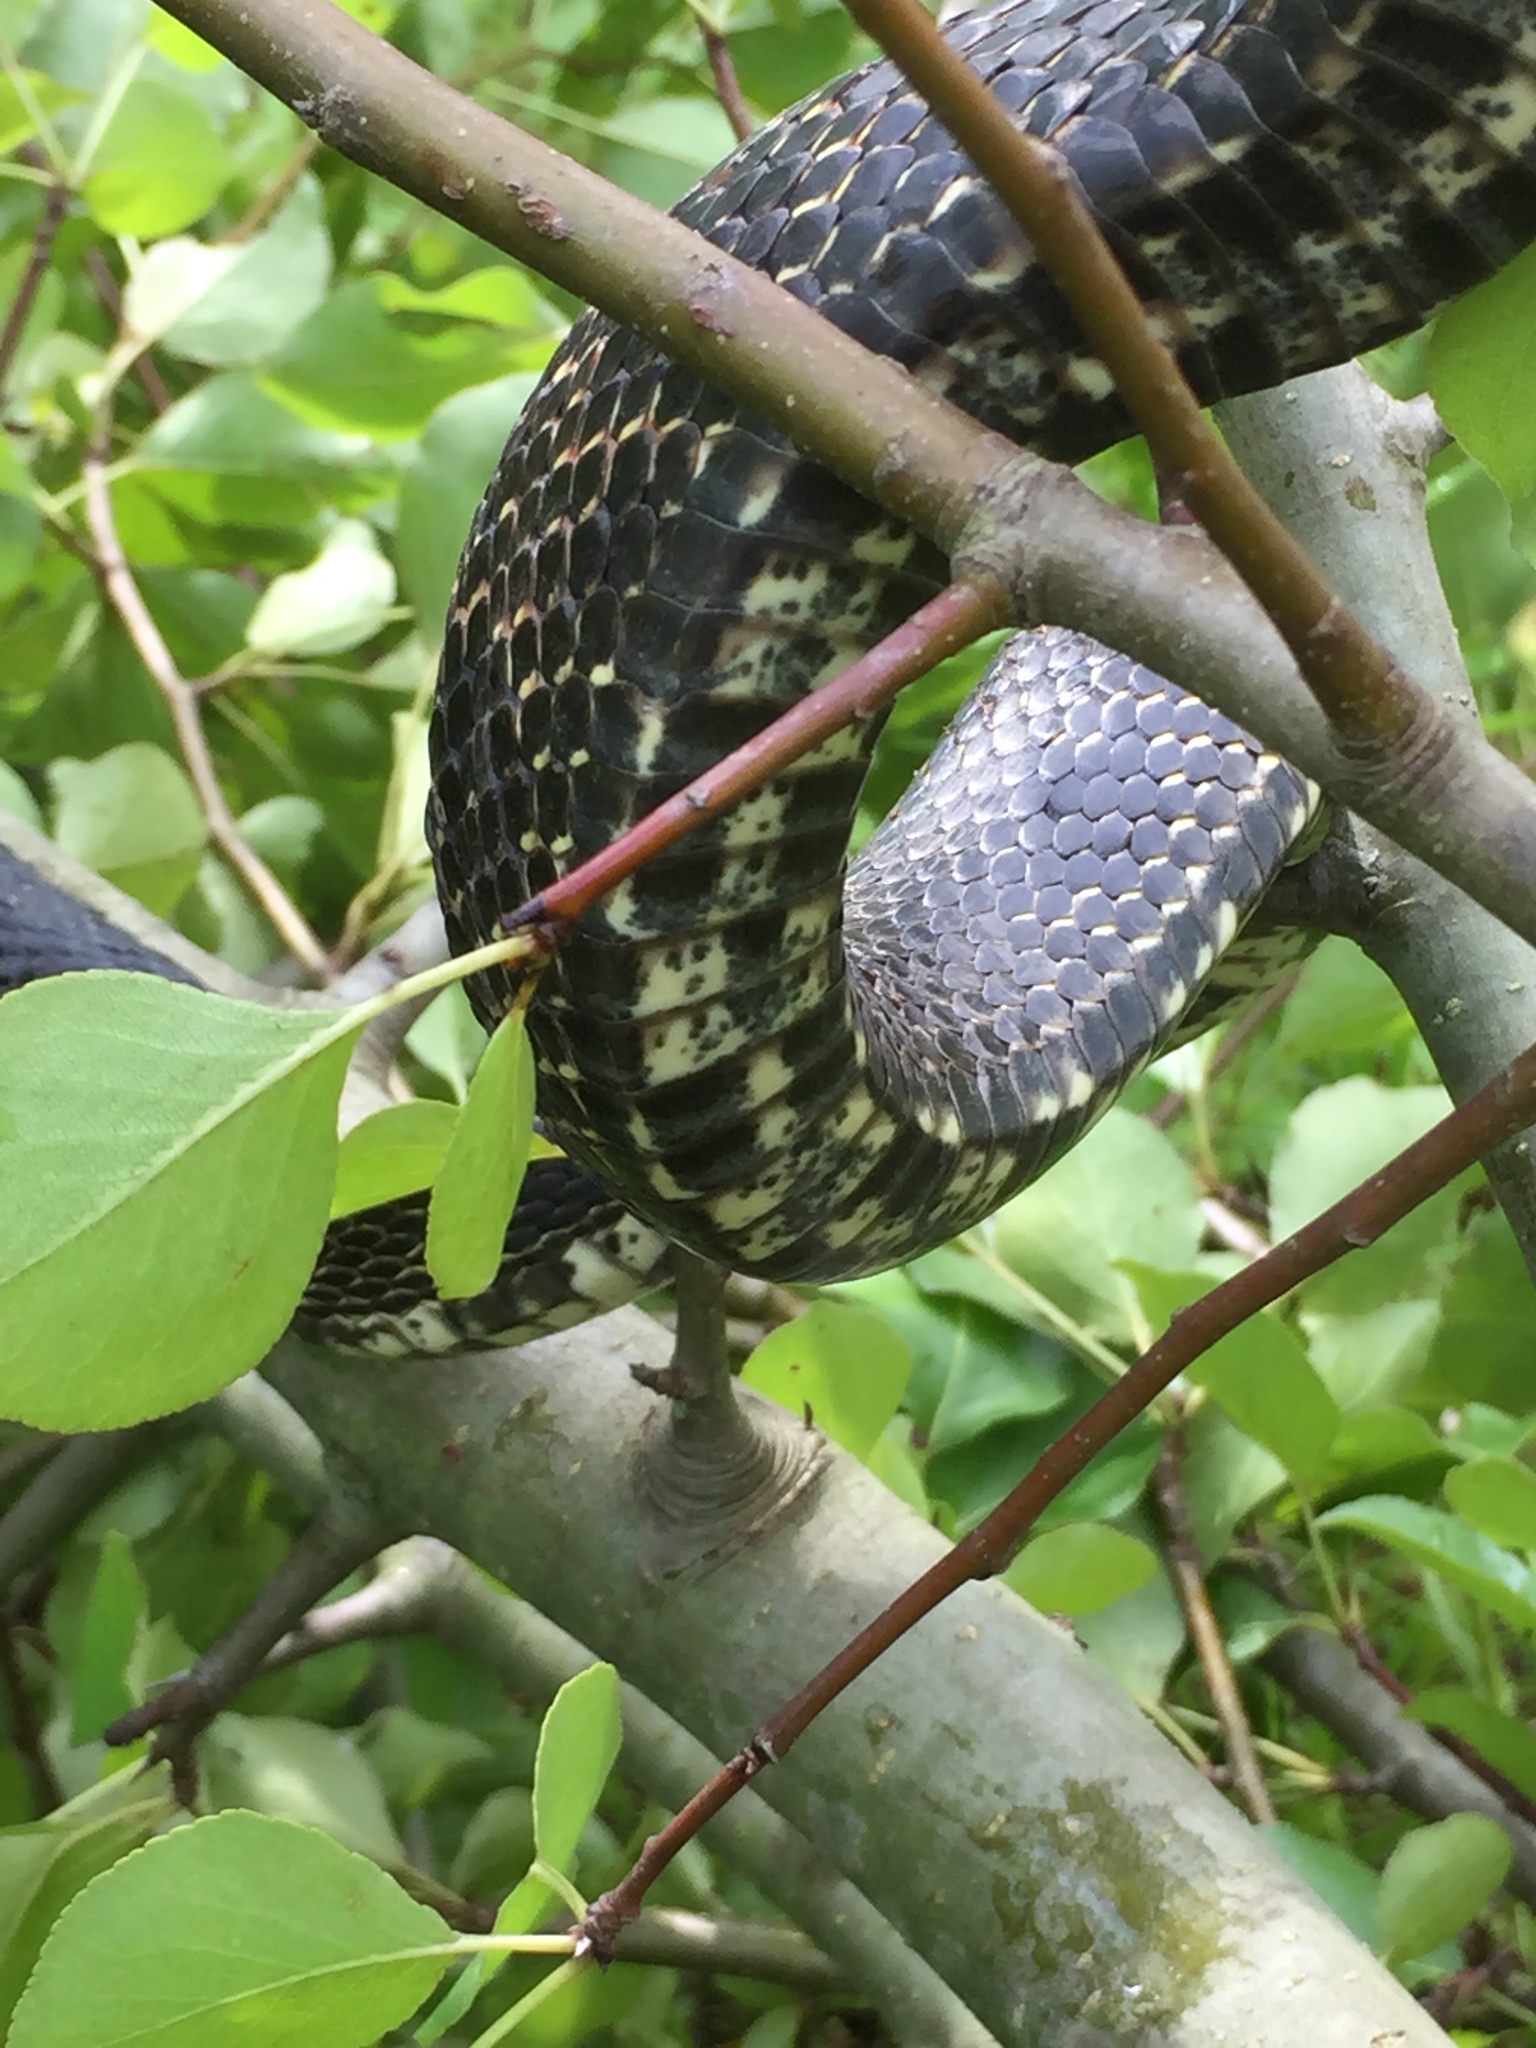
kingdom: Animalia
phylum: Chordata
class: Squamata
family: Colubridae
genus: Pantherophis
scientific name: Pantherophis spiloides
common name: Gray rat snake
